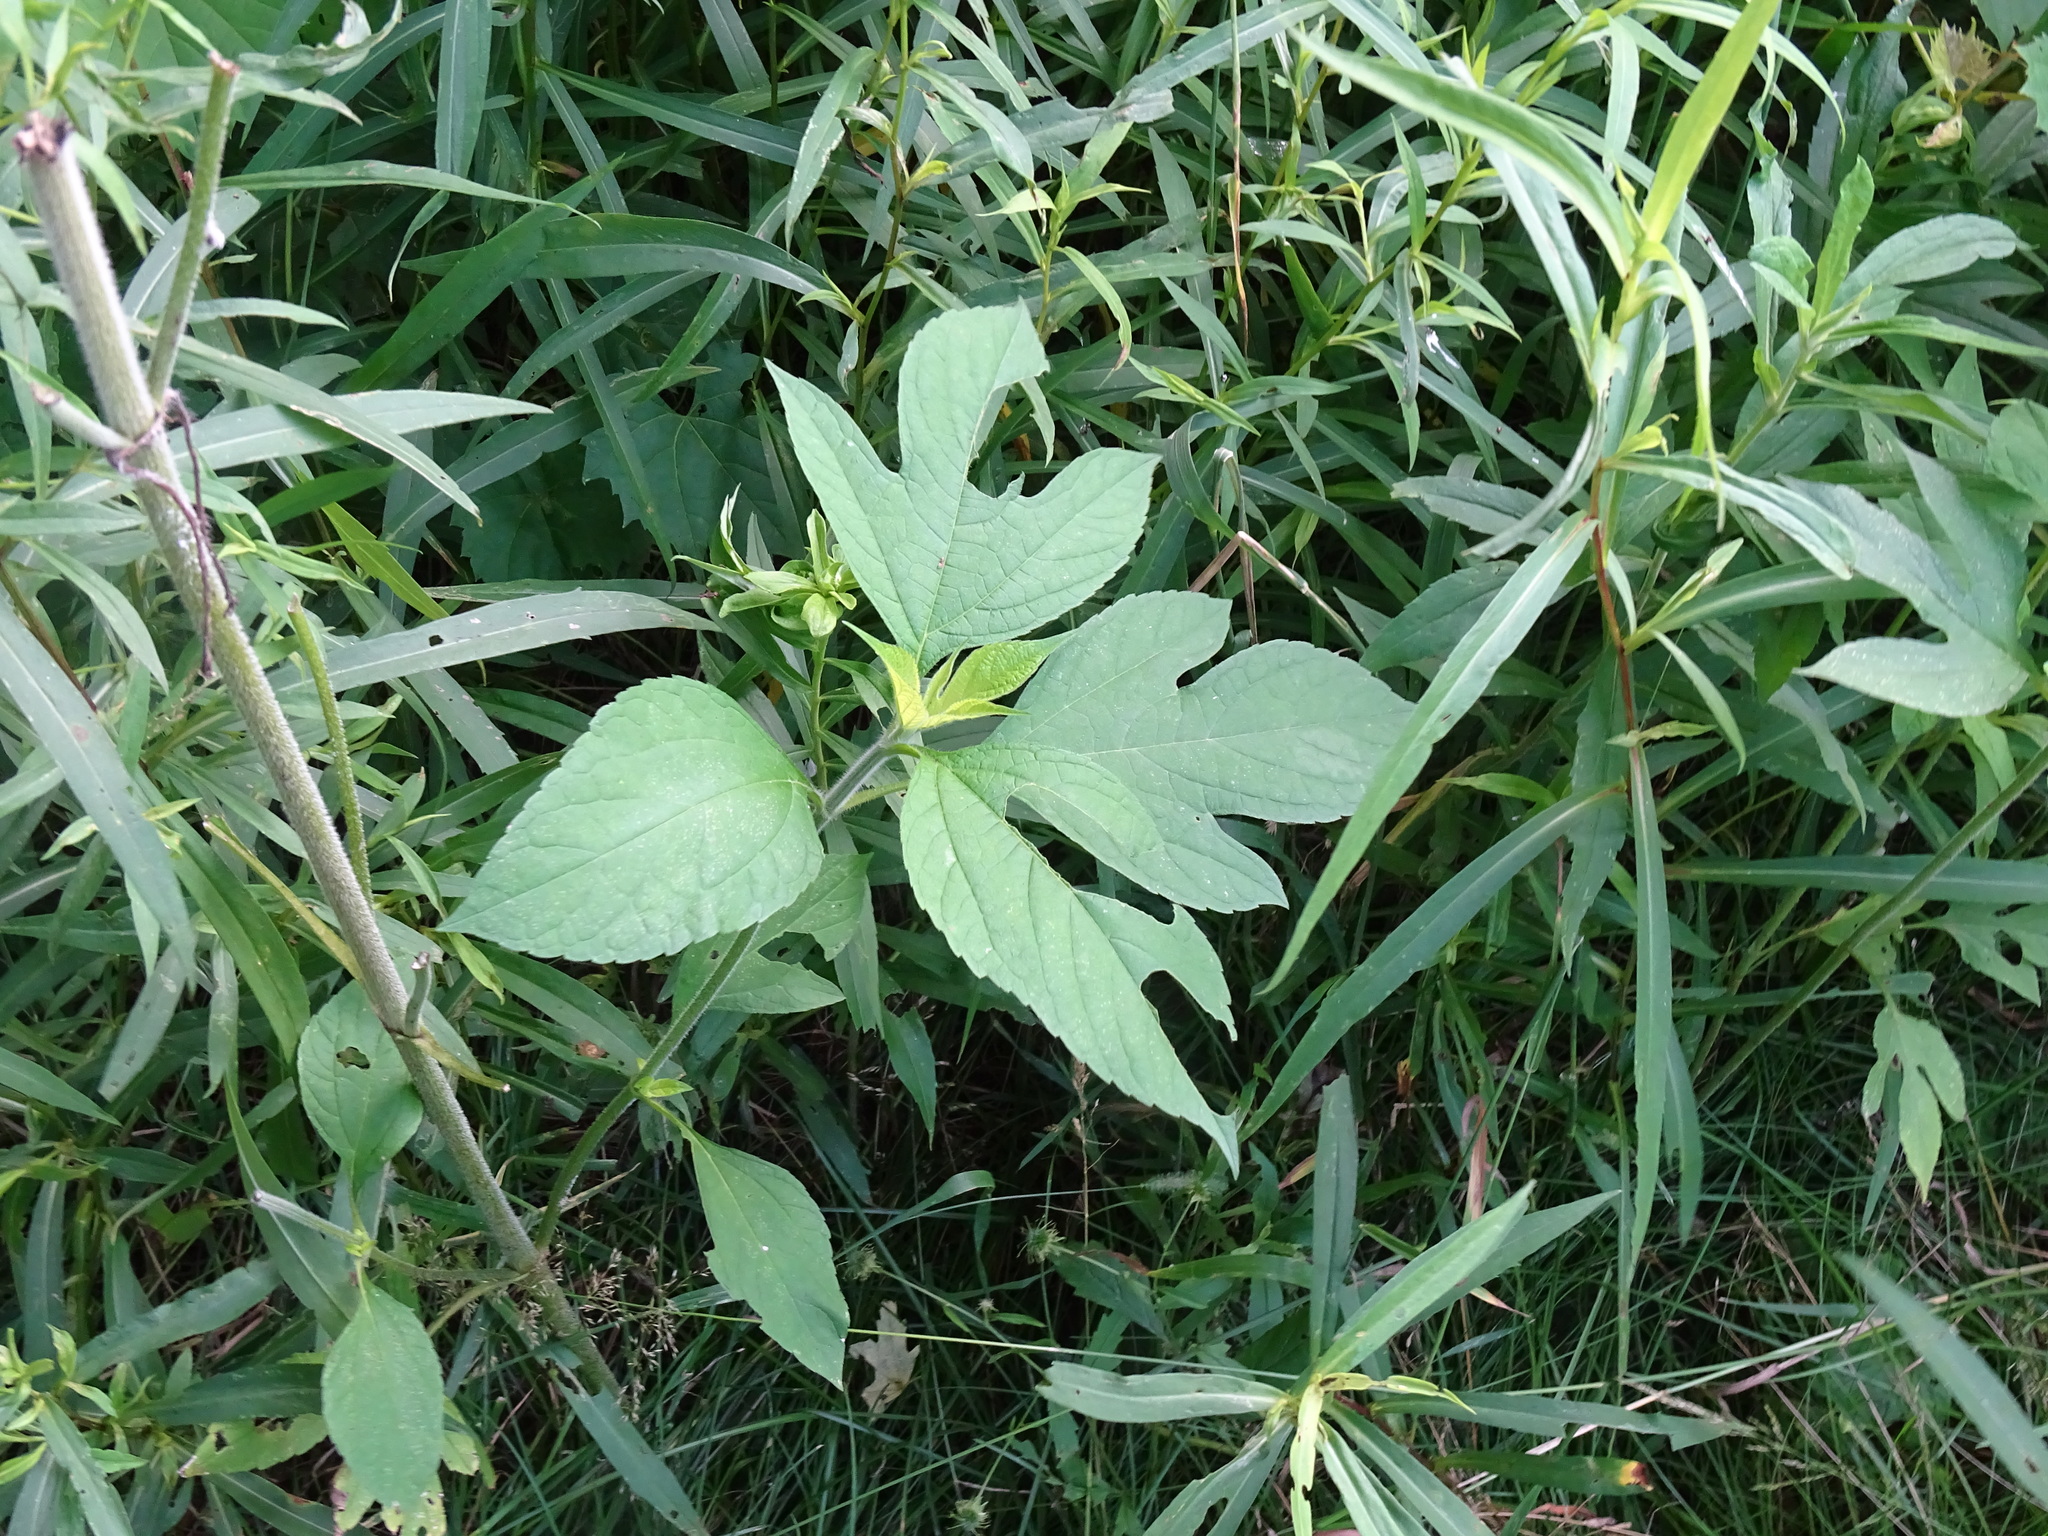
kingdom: Plantae
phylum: Tracheophyta
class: Magnoliopsida
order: Asterales
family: Asteraceae
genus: Ambrosia
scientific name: Ambrosia trifida
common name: Giant ragweed
